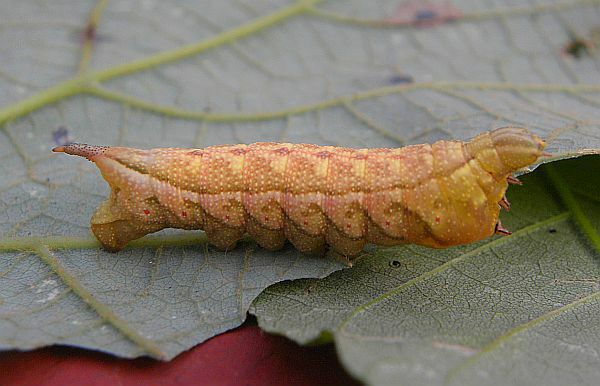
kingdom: Animalia
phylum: Arthropoda
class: Insecta
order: Lepidoptera
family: Sphingidae
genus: Darapsa
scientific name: Darapsa myron
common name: Hog sphinx
